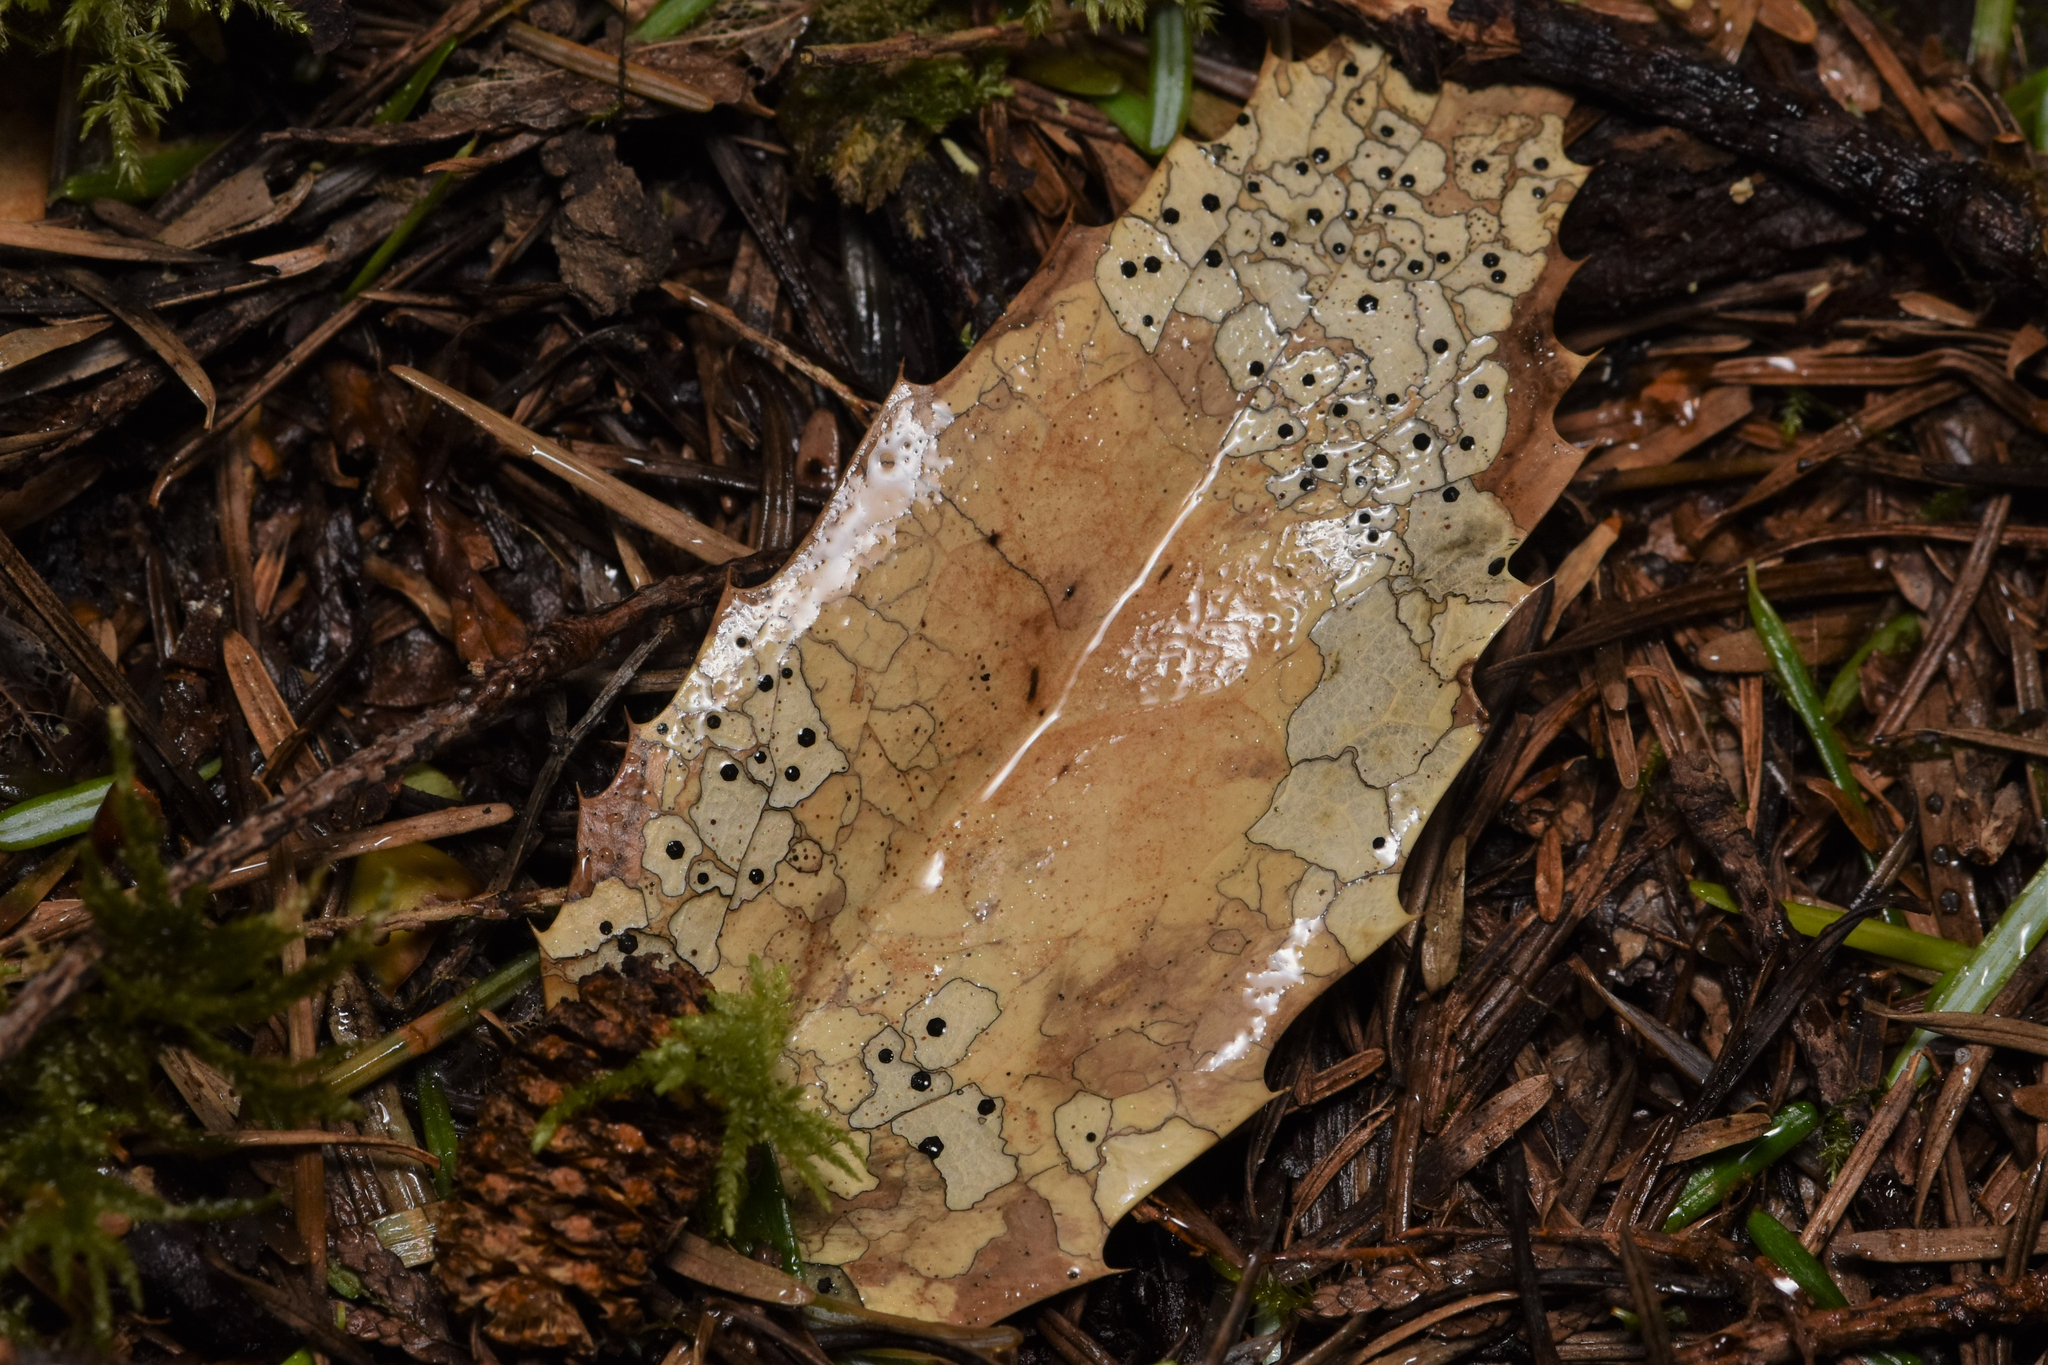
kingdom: Fungi
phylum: Ascomycota
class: Leotiomycetes
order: Rhytismatales
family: Rhytismataceae
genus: Coccomyces
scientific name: Coccomyces dentatus
